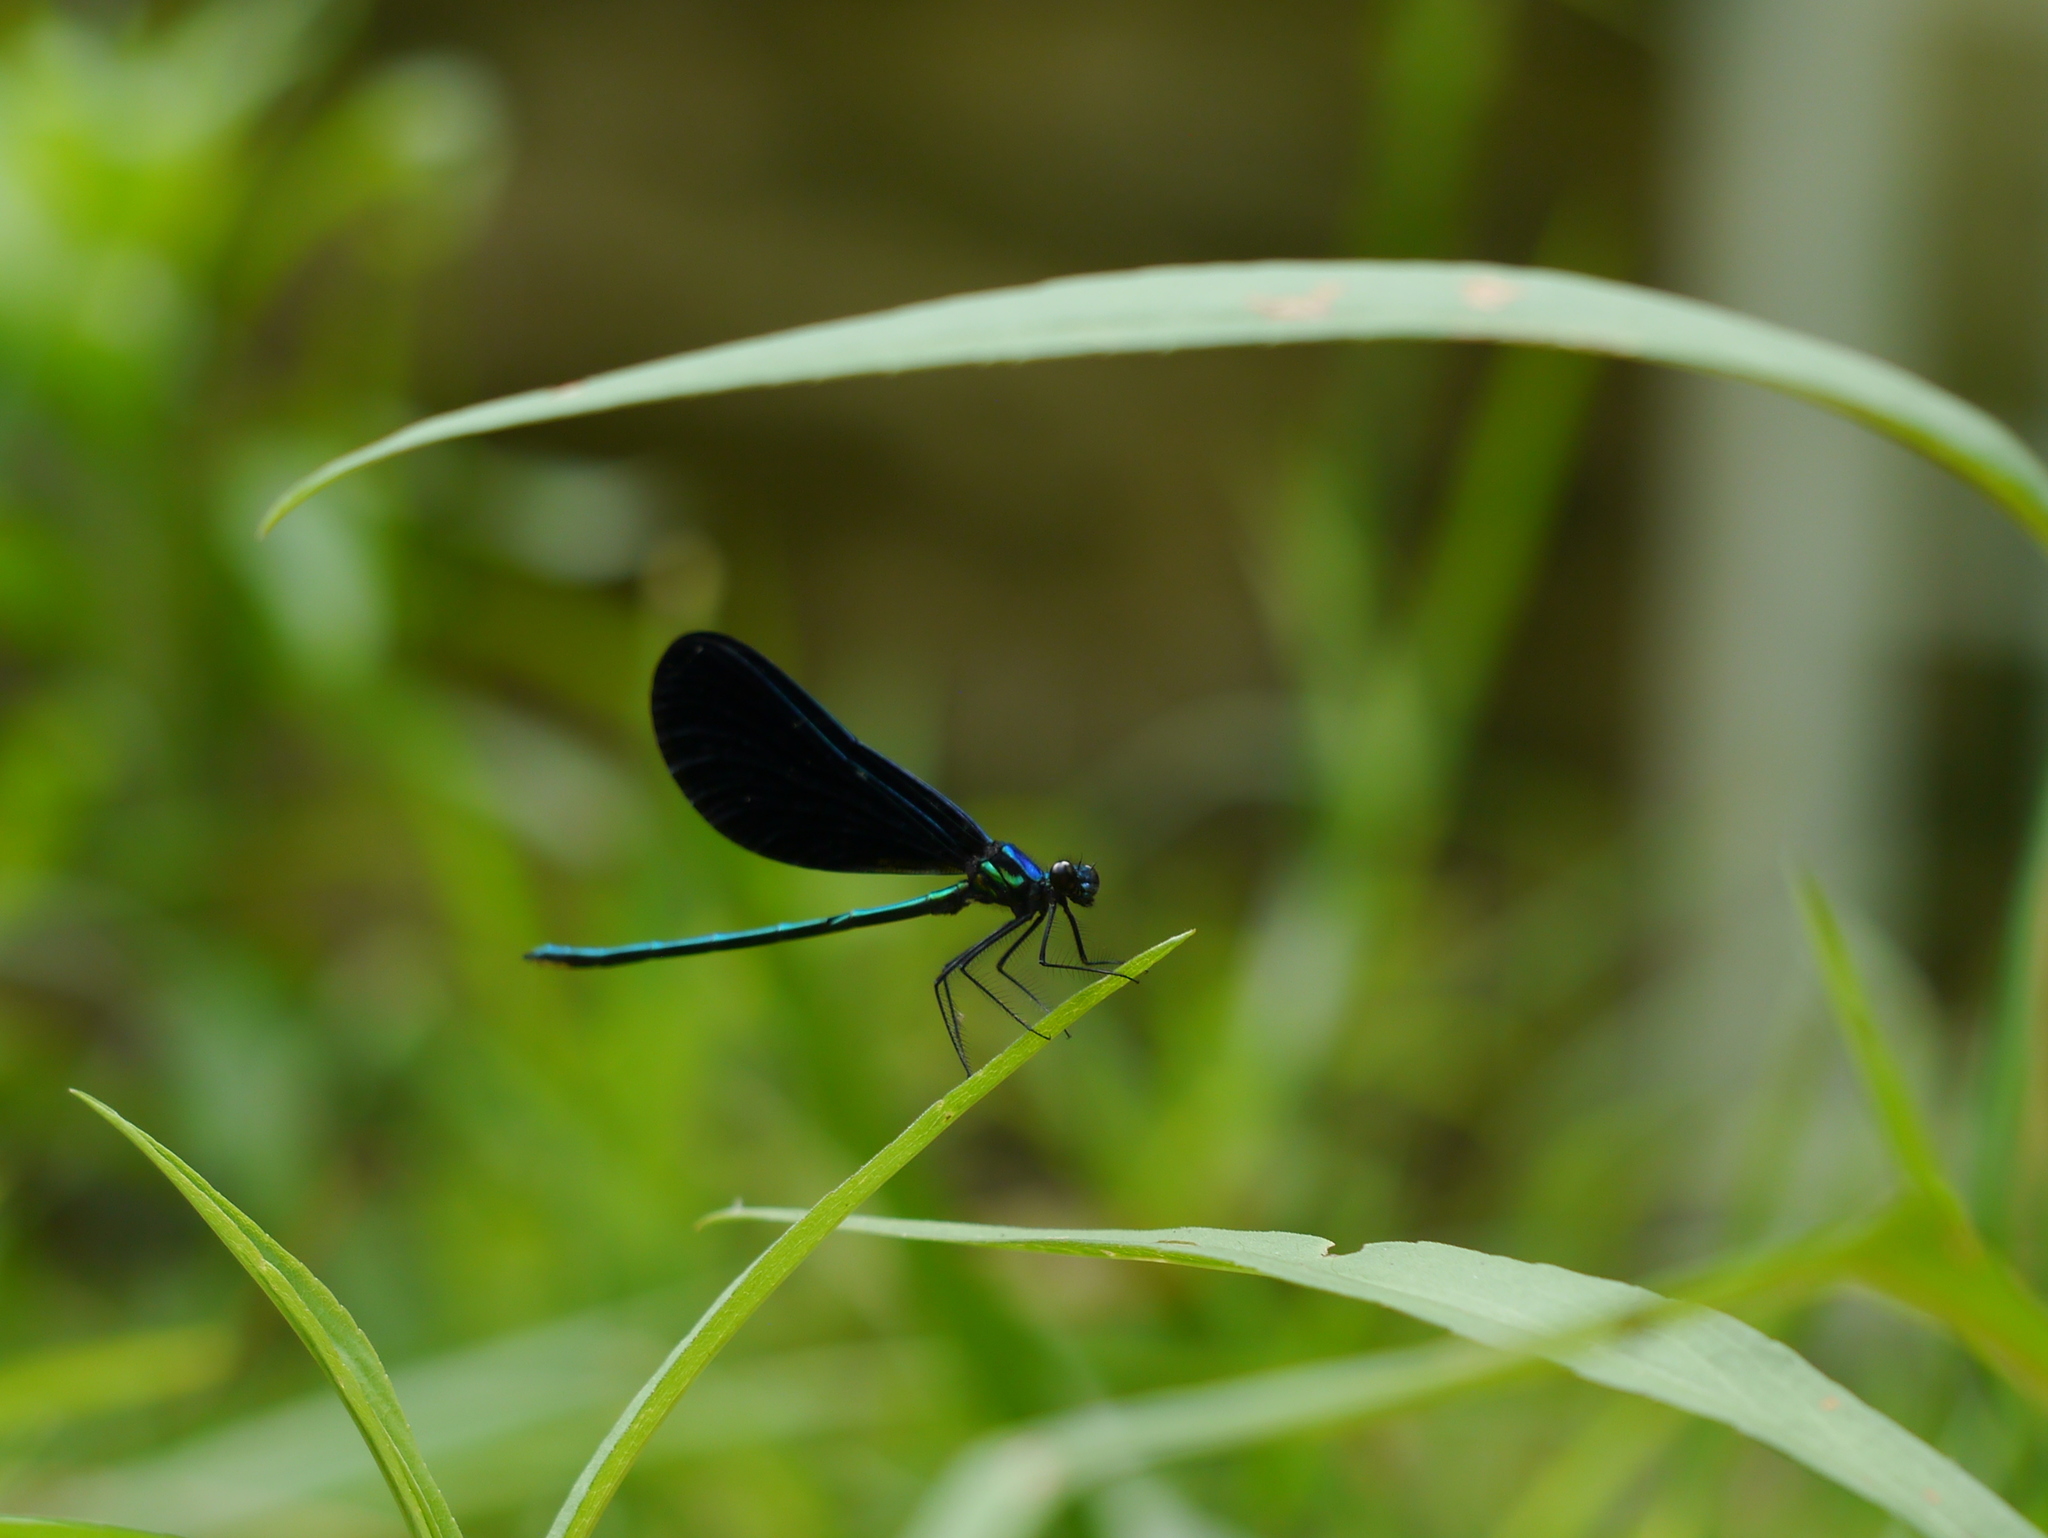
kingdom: Animalia
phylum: Arthropoda
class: Insecta
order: Odonata
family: Calopterygidae
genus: Calopteryx
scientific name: Calopteryx maculata
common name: Ebony jewelwing
